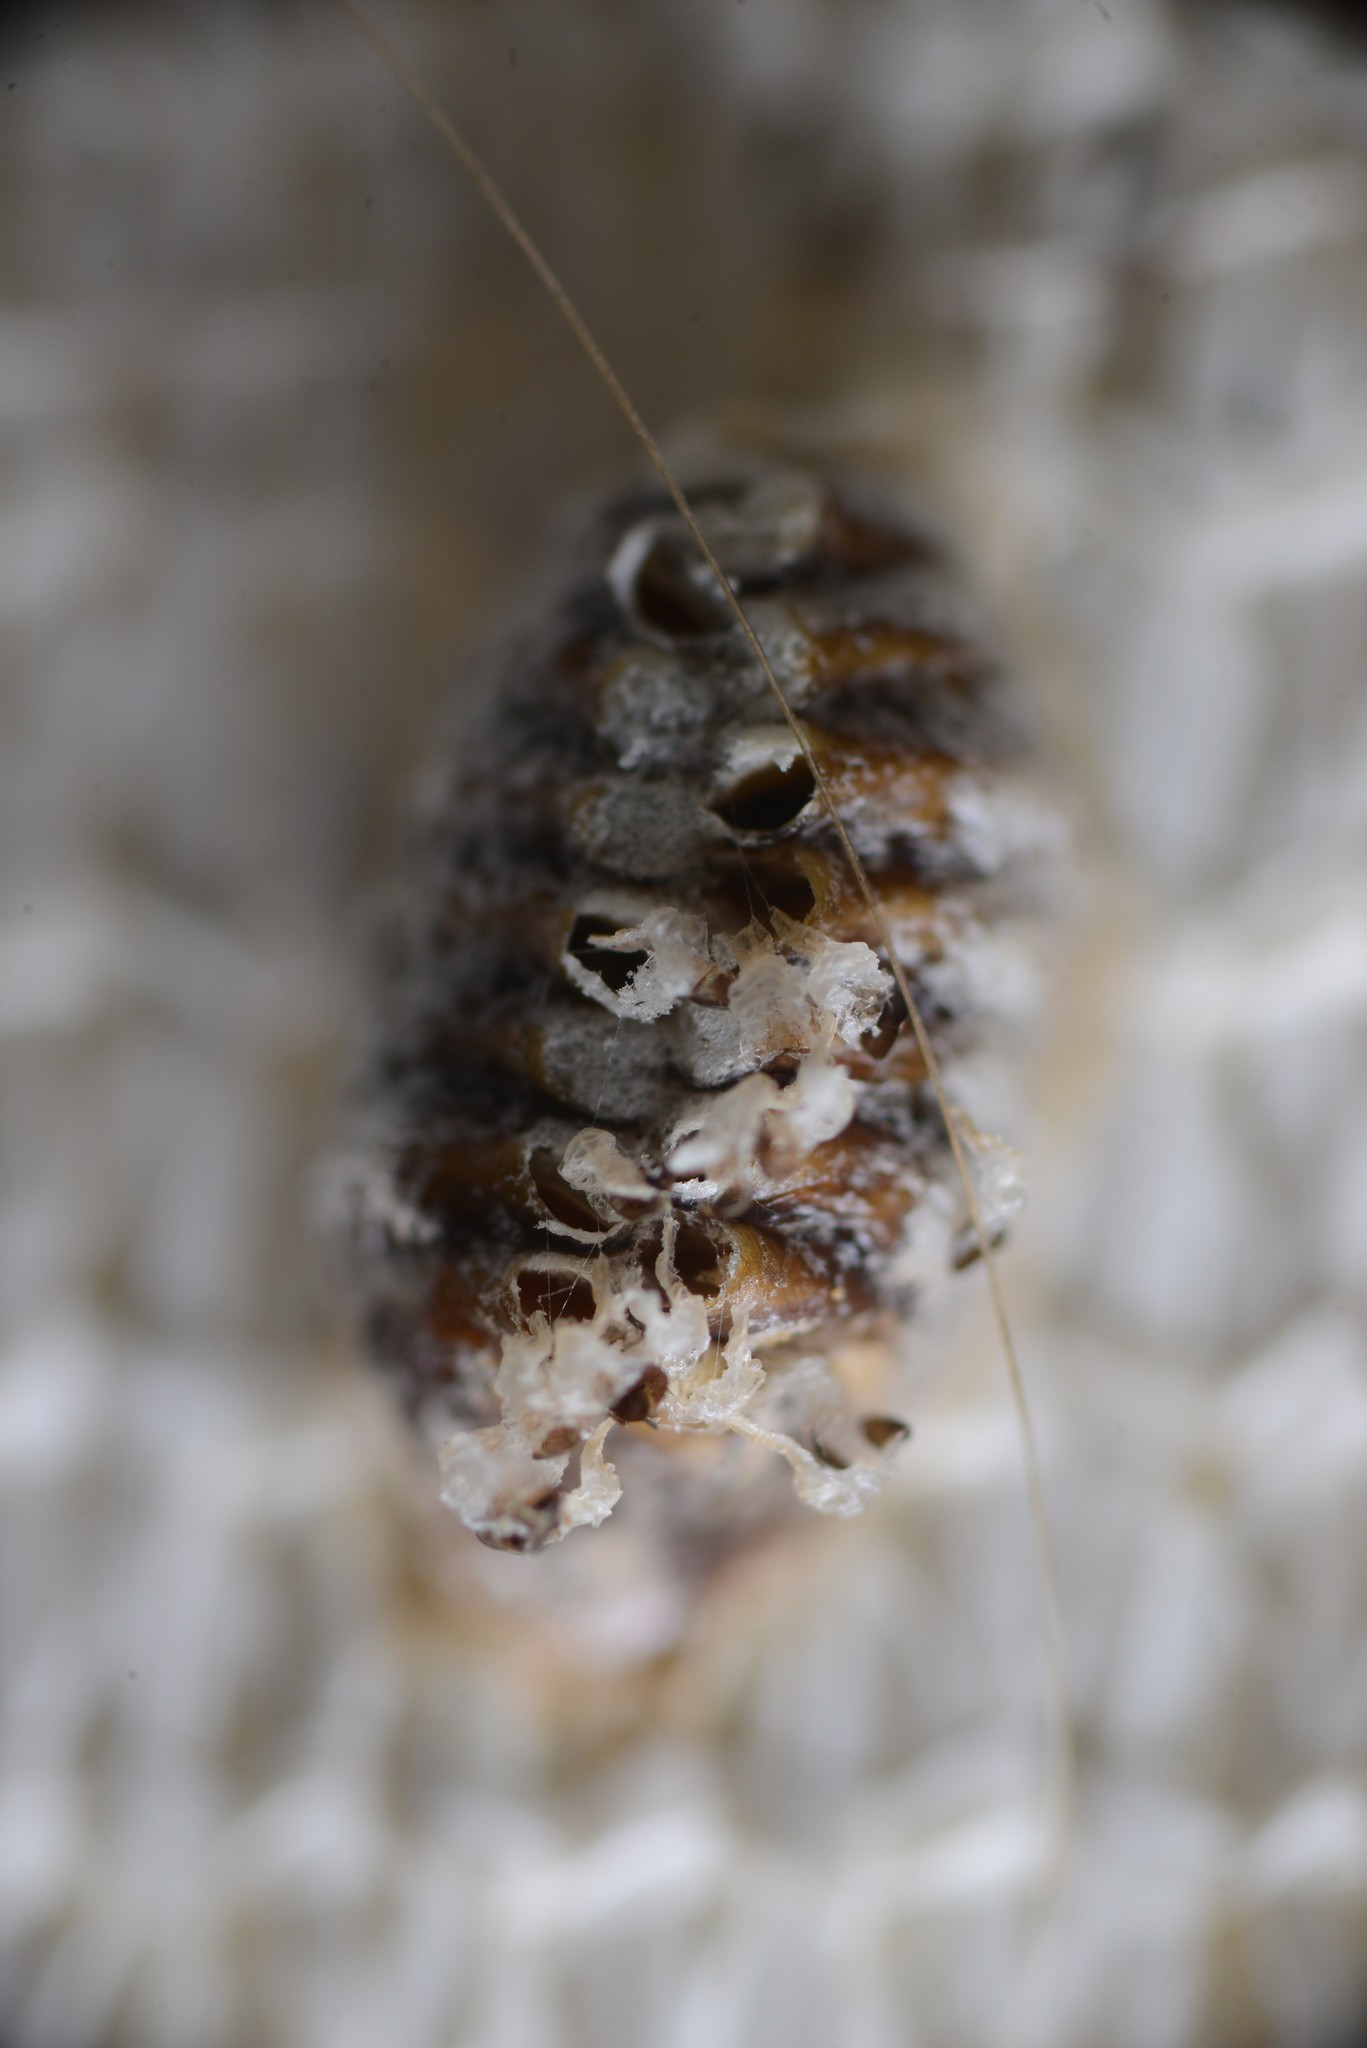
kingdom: Animalia
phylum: Arthropoda
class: Insecta
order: Mantodea
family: Mantidae
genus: Orthodera
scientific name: Orthodera novaezealandiae
